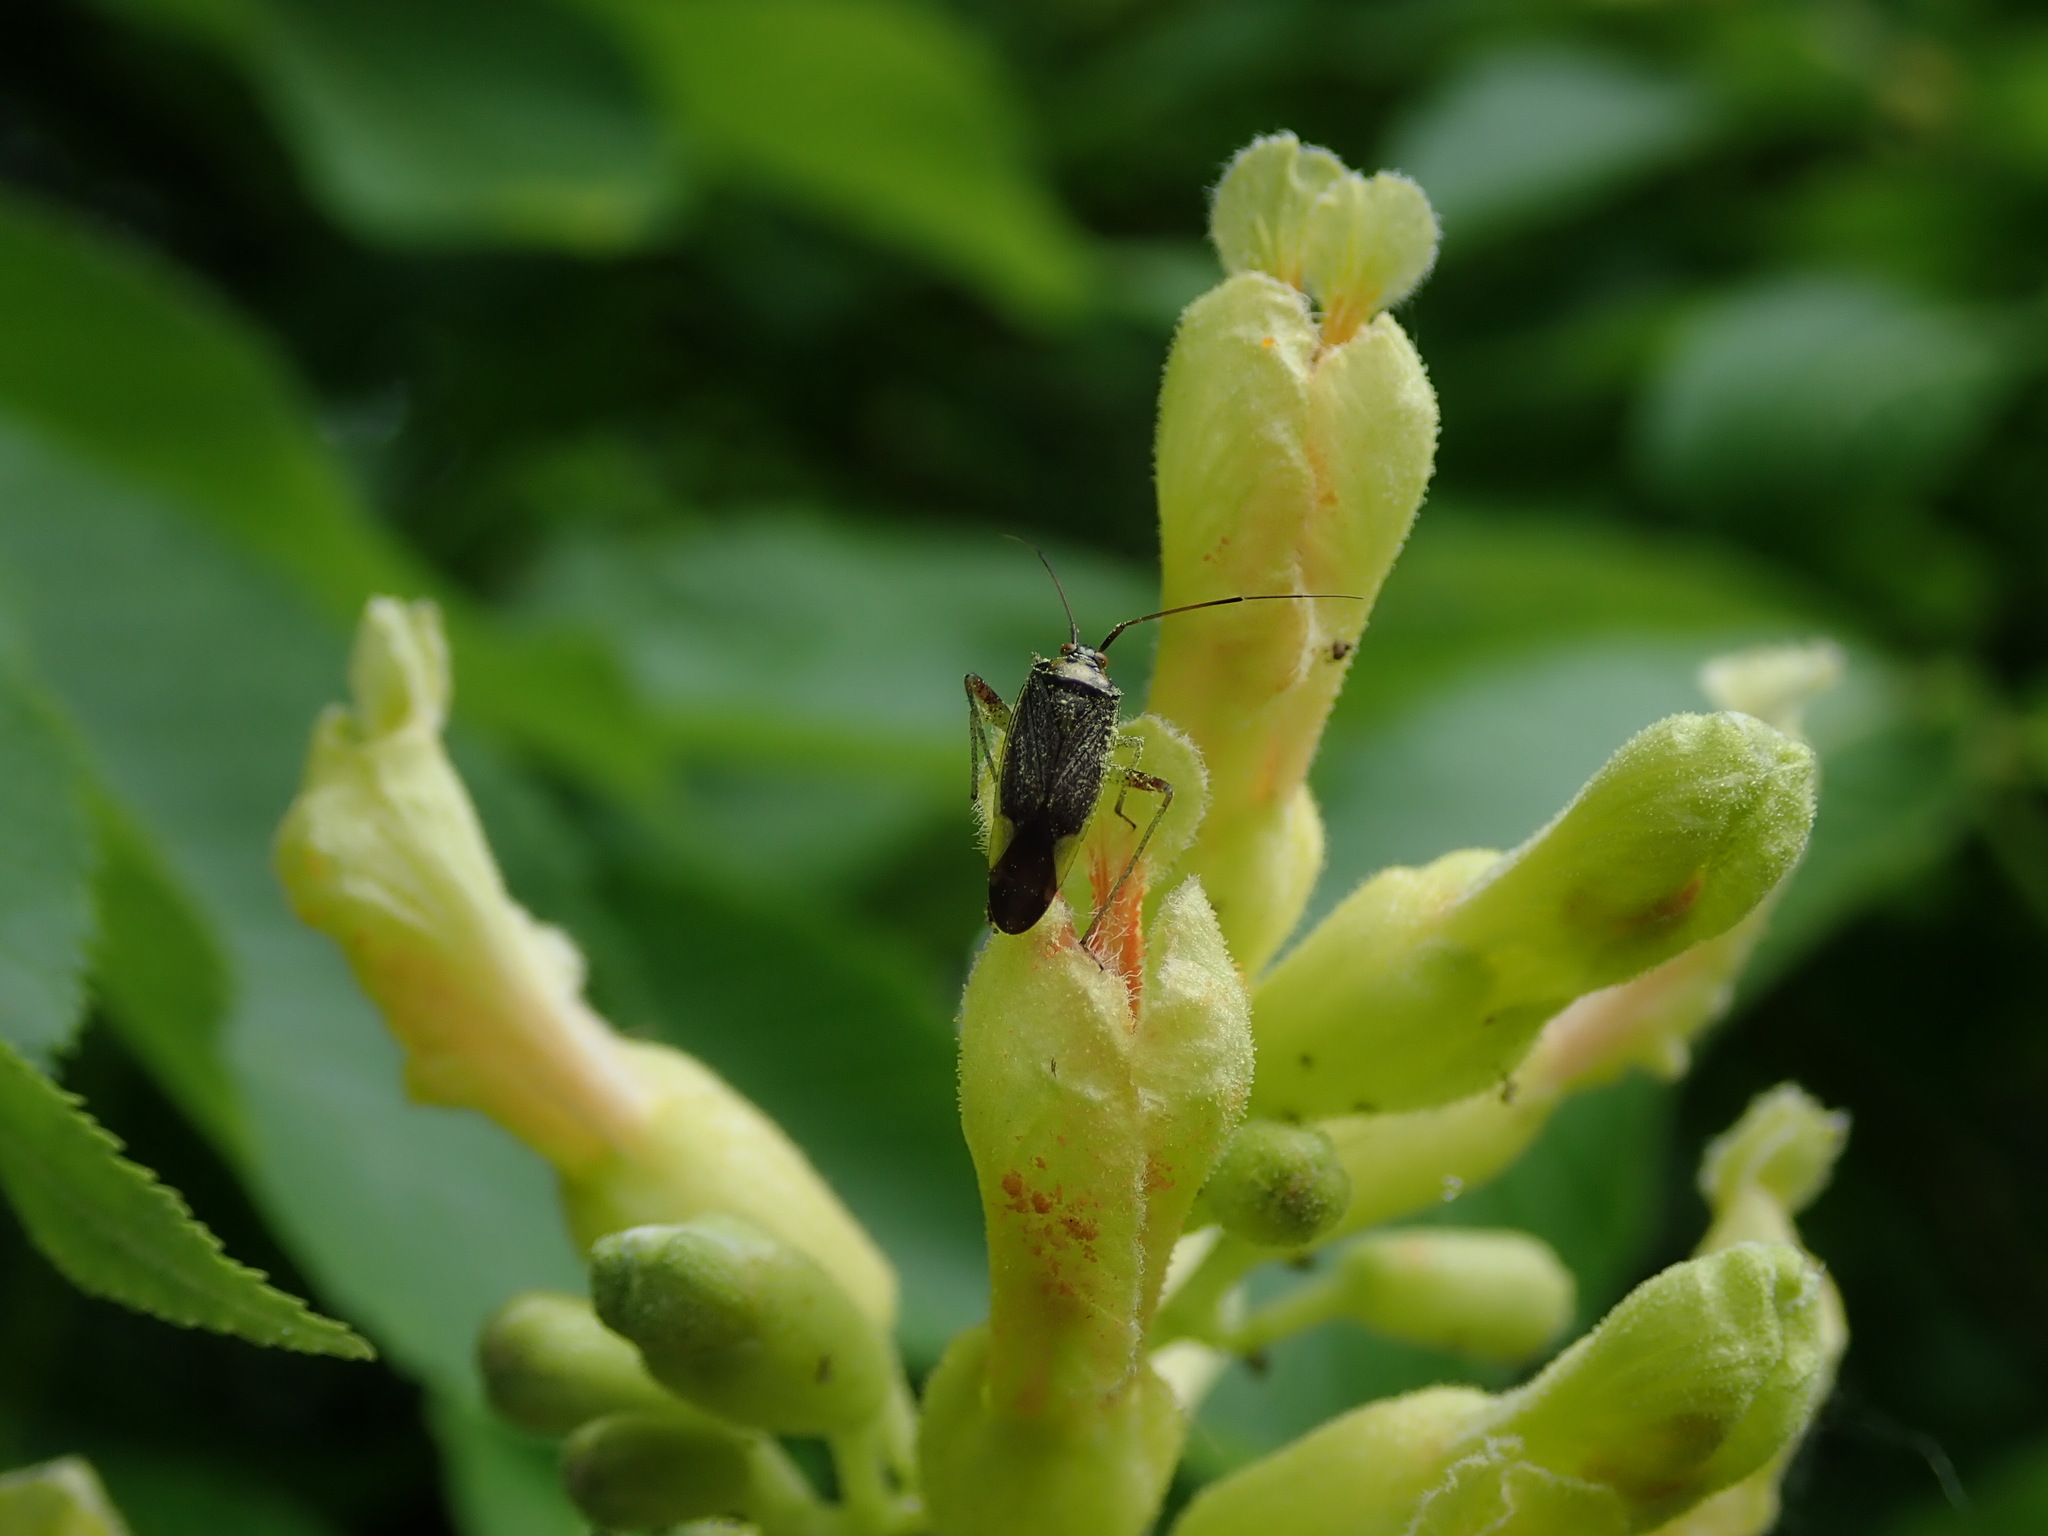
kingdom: Animalia
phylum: Arthropoda
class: Insecta
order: Hemiptera
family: Miridae
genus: Closterotomus
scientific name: Closterotomus trivialis
